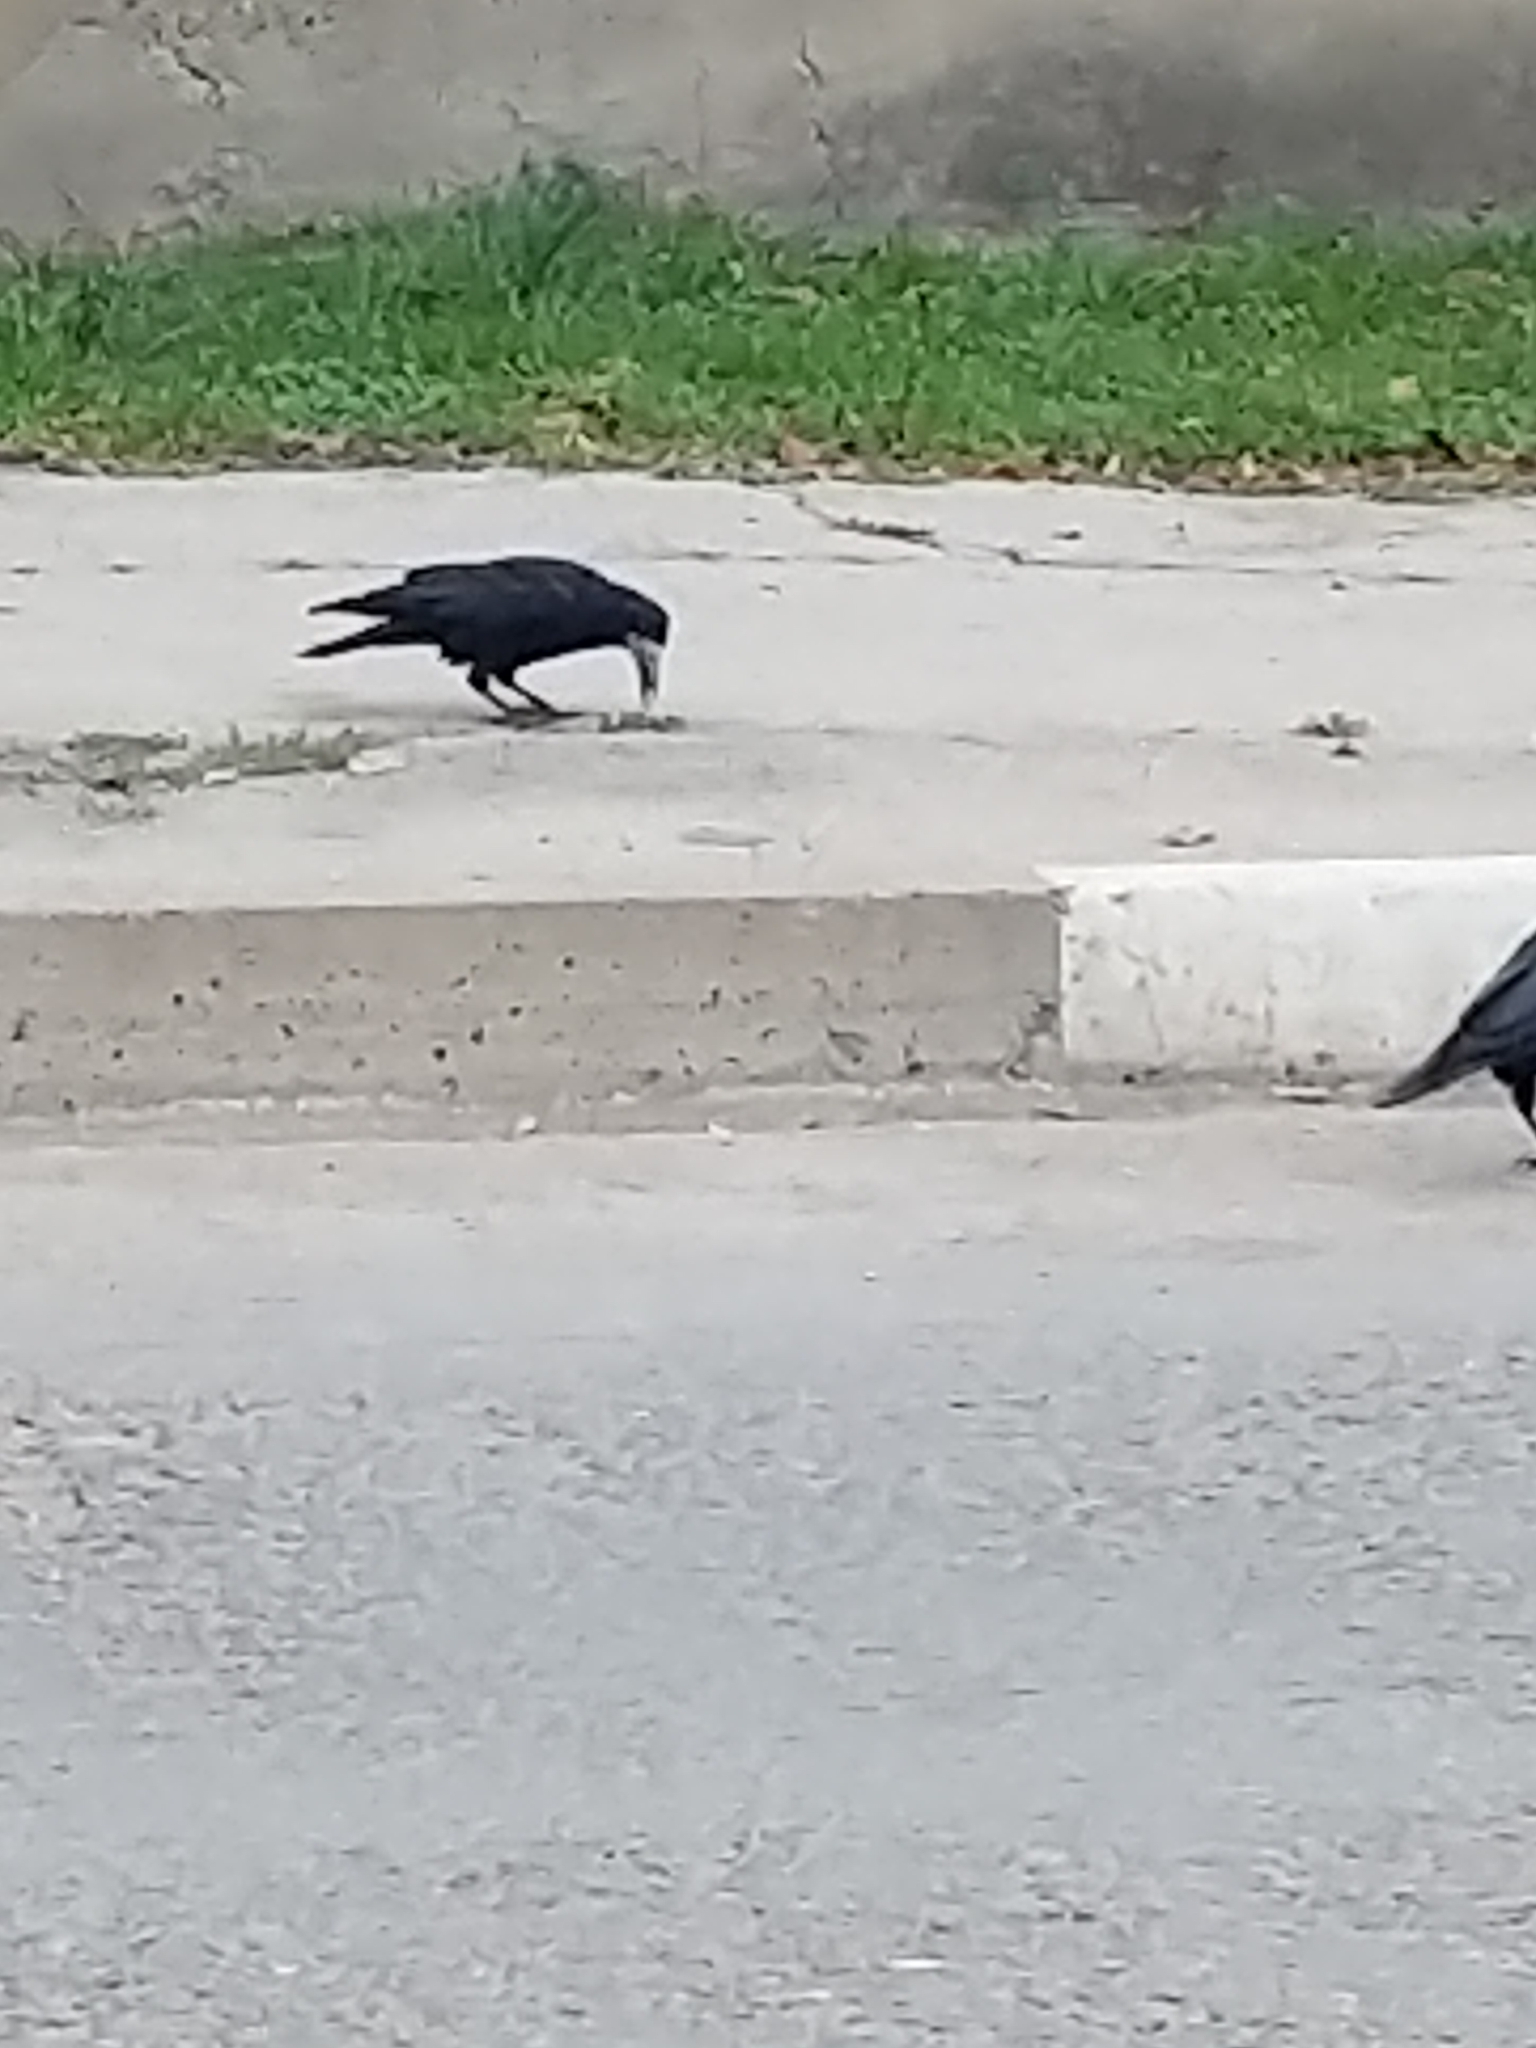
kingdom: Animalia
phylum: Chordata
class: Aves
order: Passeriformes
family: Corvidae
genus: Corvus
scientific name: Corvus frugilegus
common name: Rook
